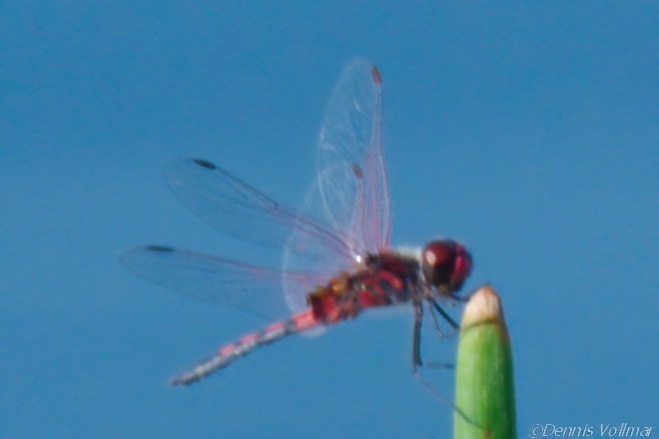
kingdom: Animalia
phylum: Arthropoda
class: Insecta
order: Odonata
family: Libellulidae
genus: Celithemis
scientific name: Celithemis bertha
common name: Red-veined pennant
